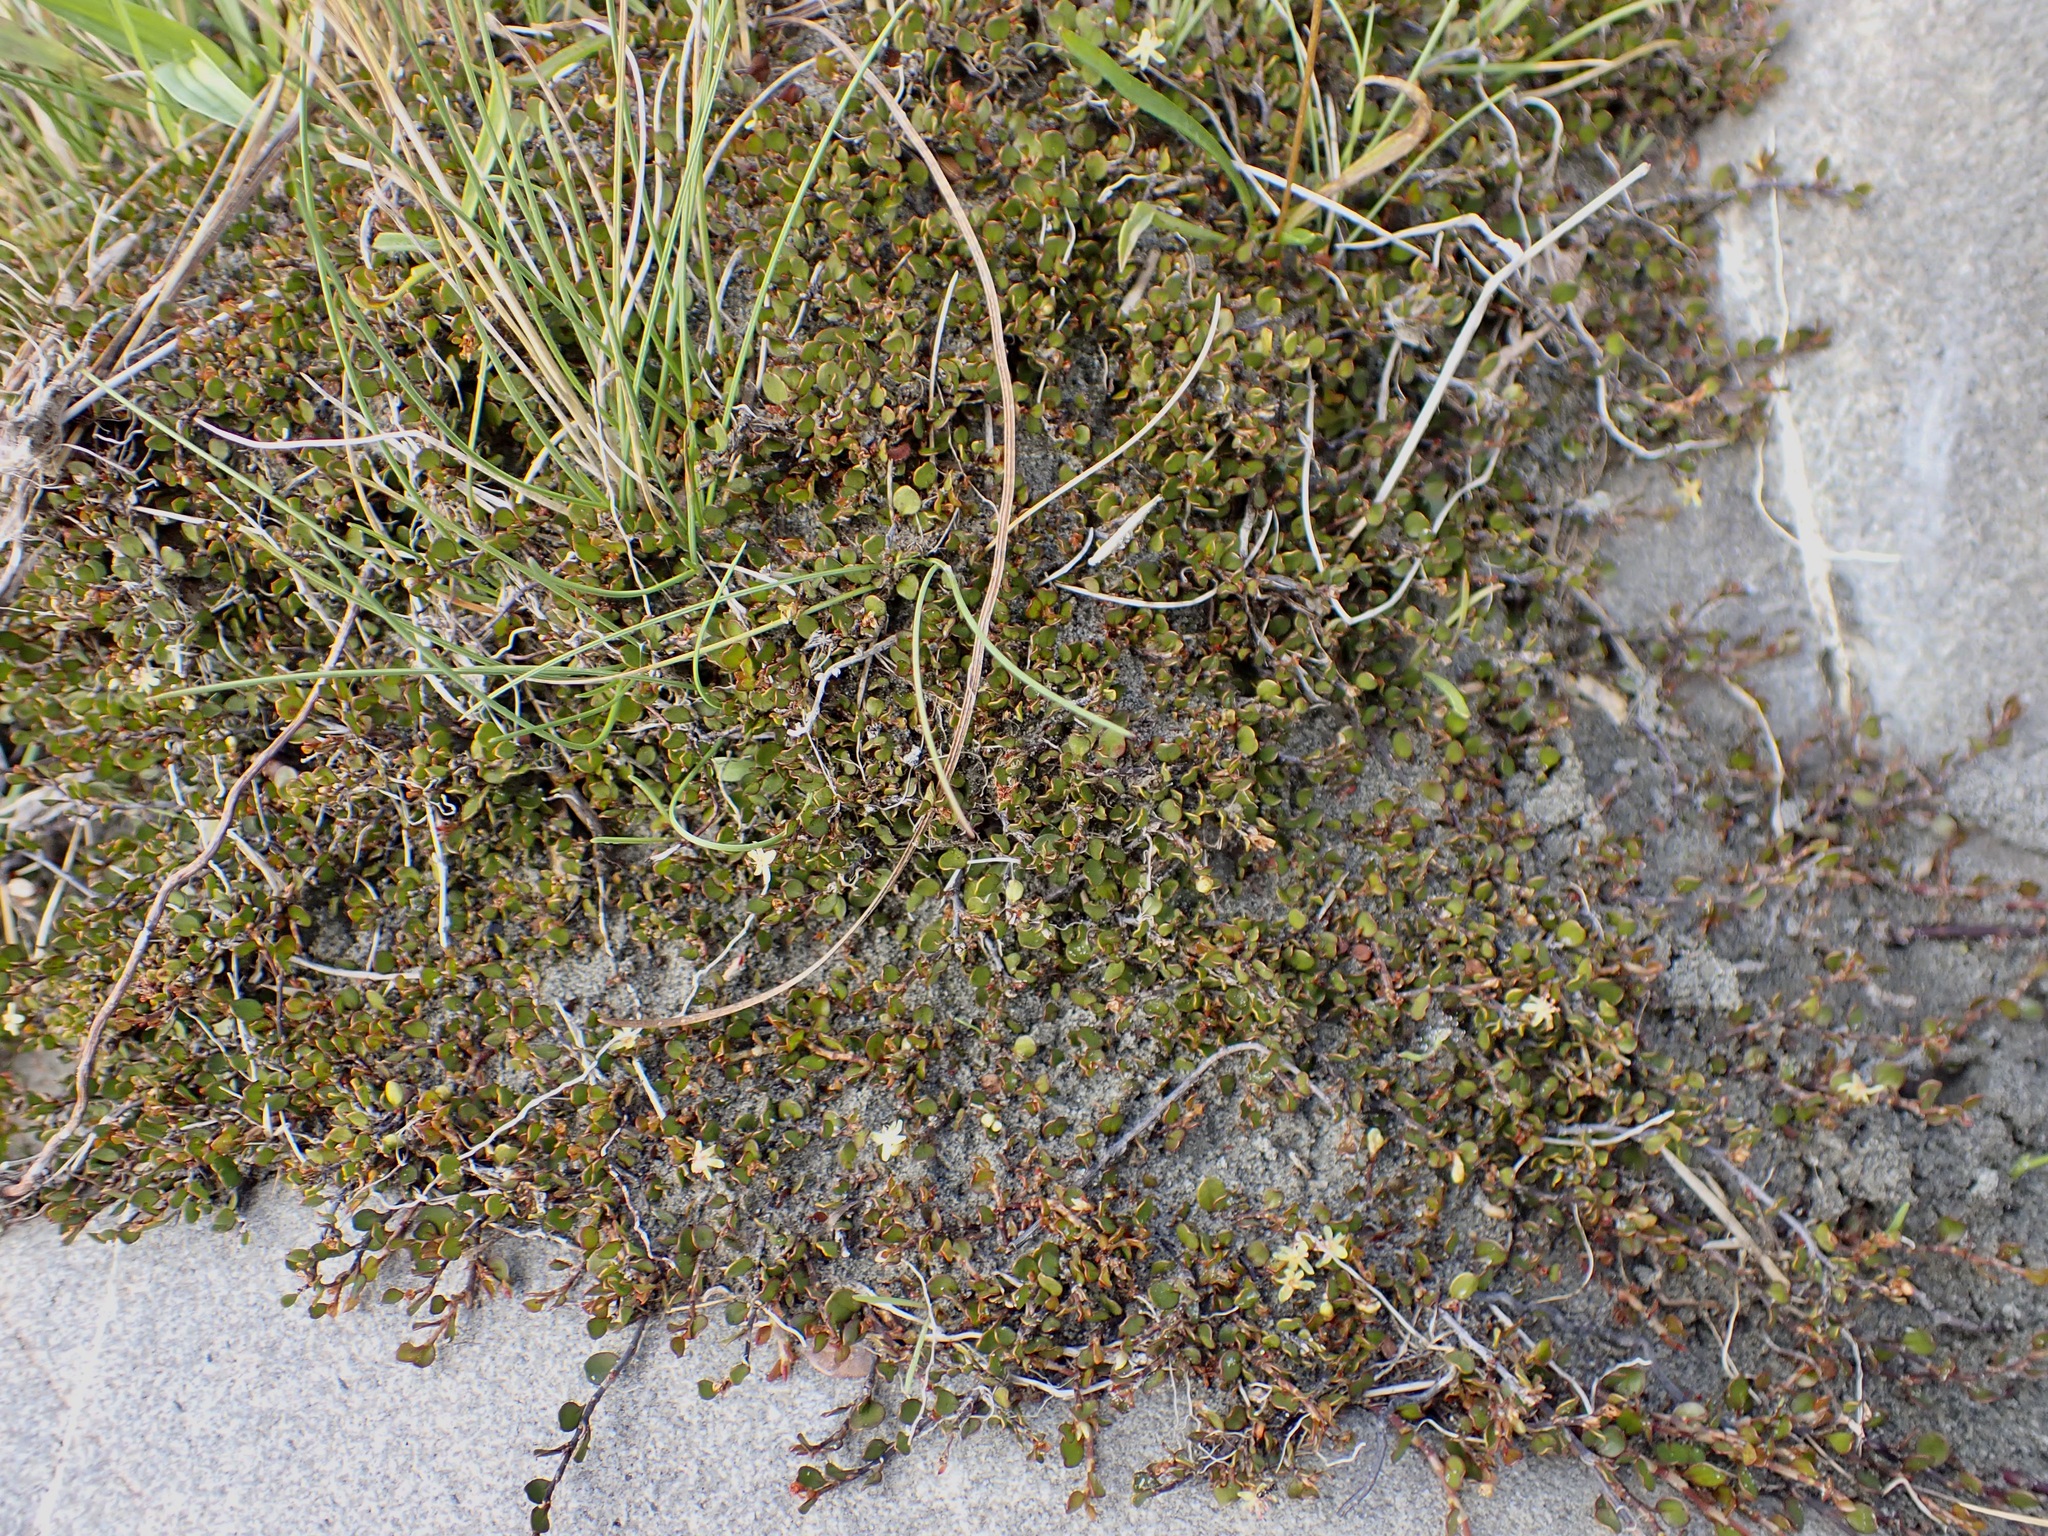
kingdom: Plantae
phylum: Tracheophyta
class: Magnoliopsida
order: Caryophyllales
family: Polygonaceae
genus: Muehlenbeckia
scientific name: Muehlenbeckia axillaris
